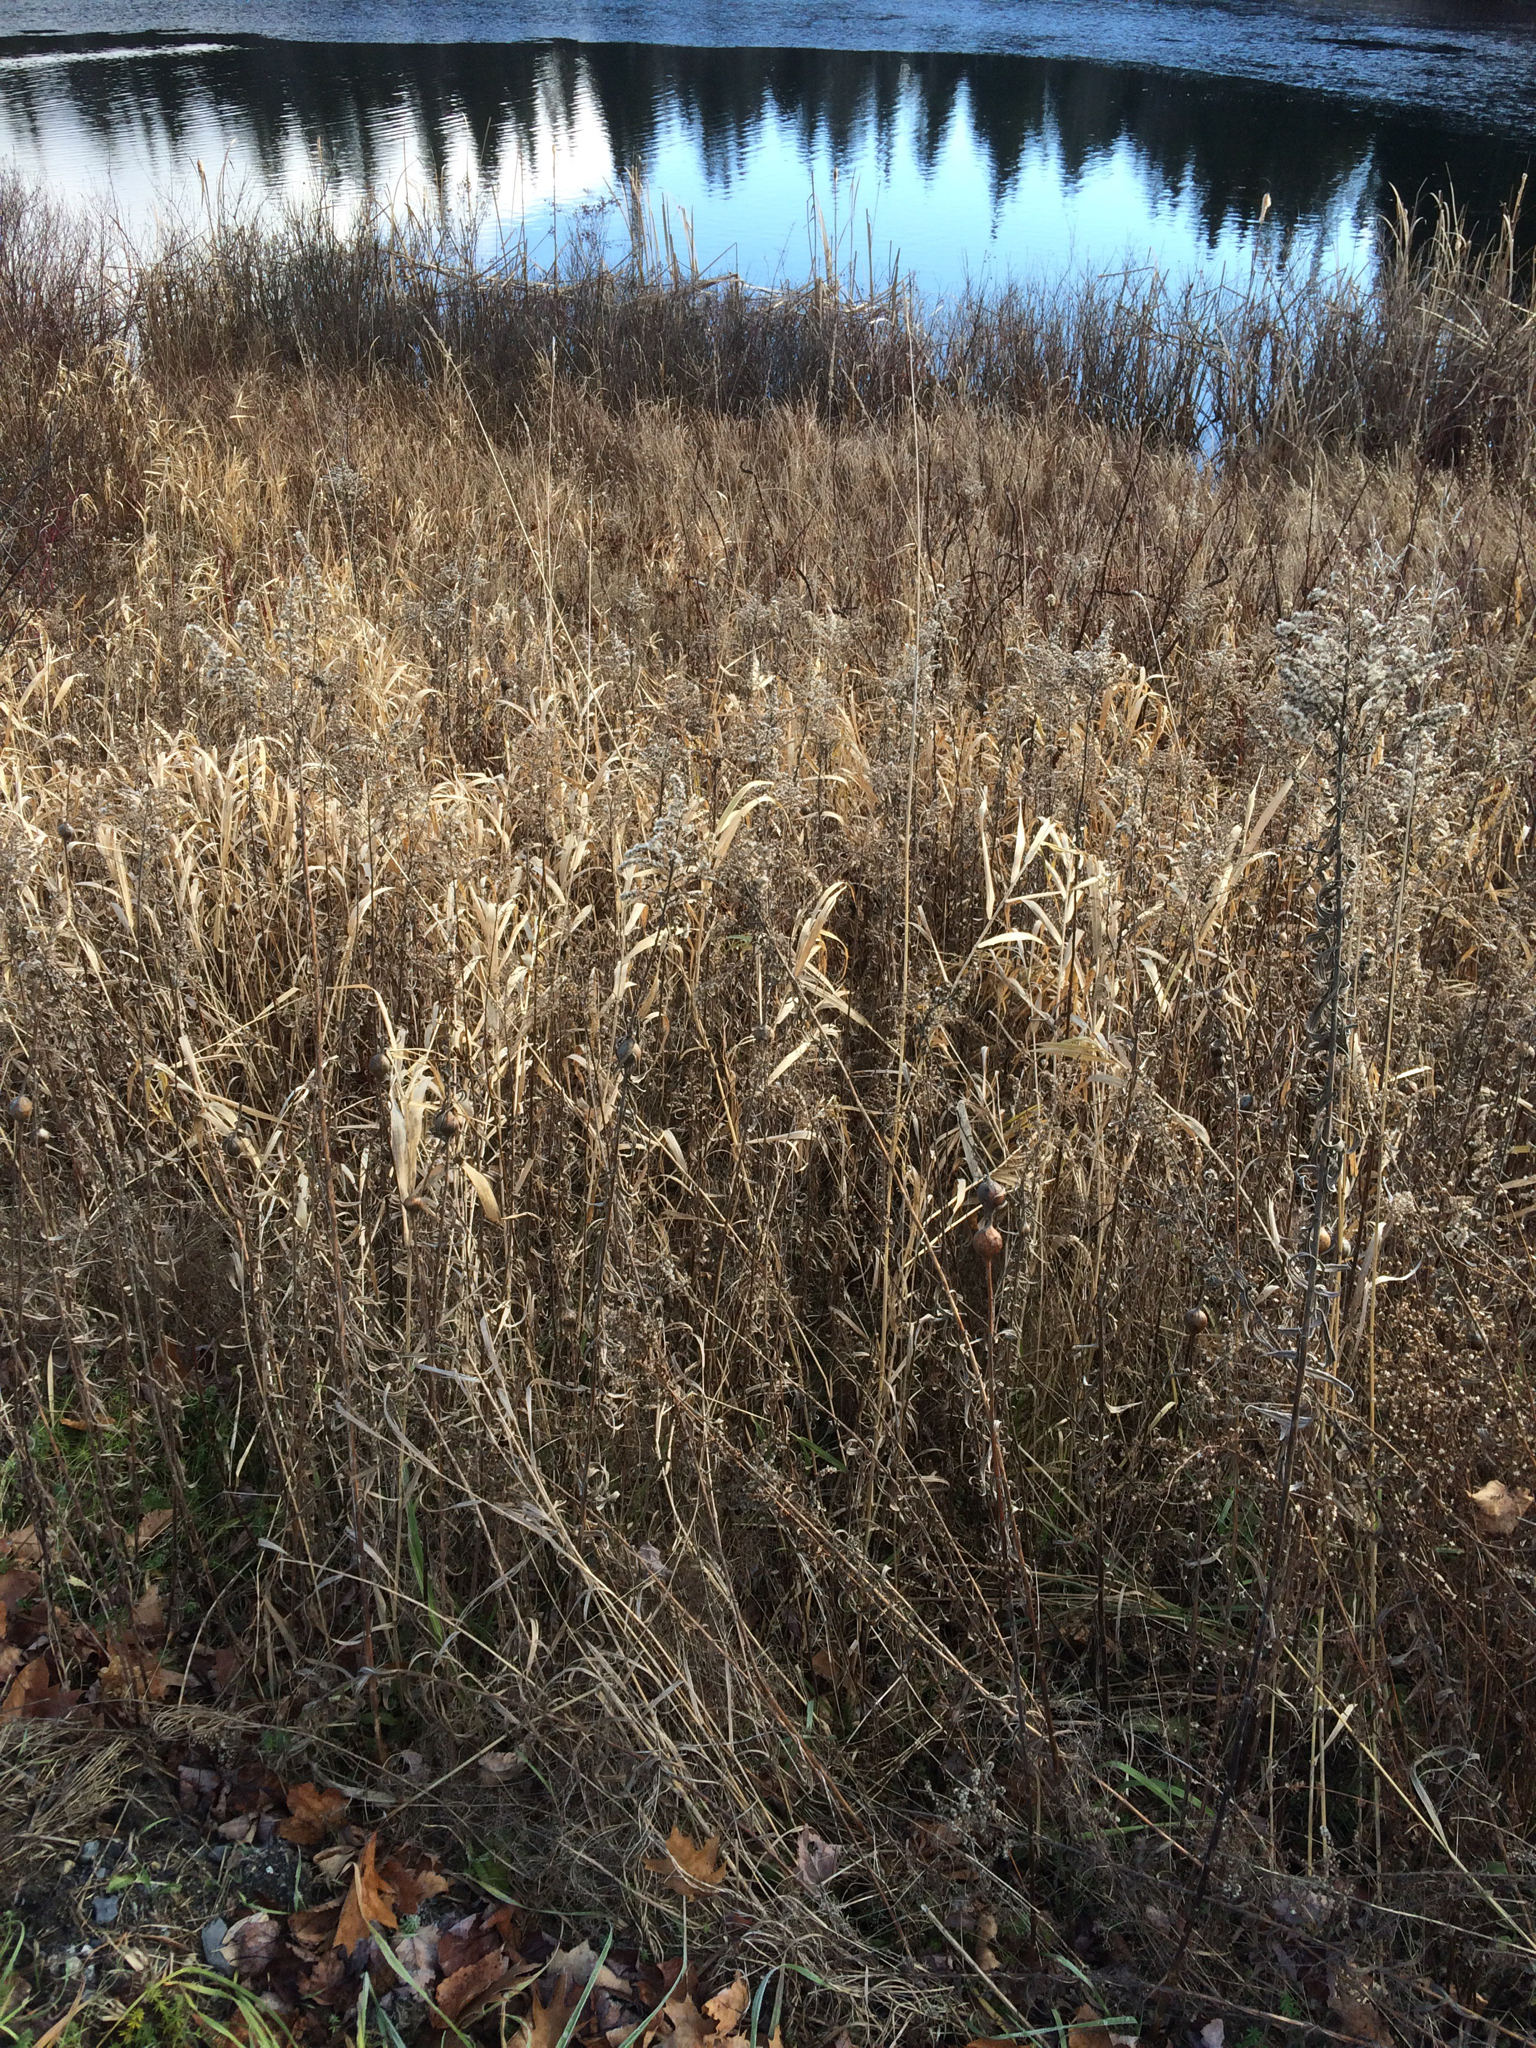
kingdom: Plantae
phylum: Tracheophyta
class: Liliopsida
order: Poales
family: Poaceae
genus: Phalaris
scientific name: Phalaris arundinacea
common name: Reed canary-grass
